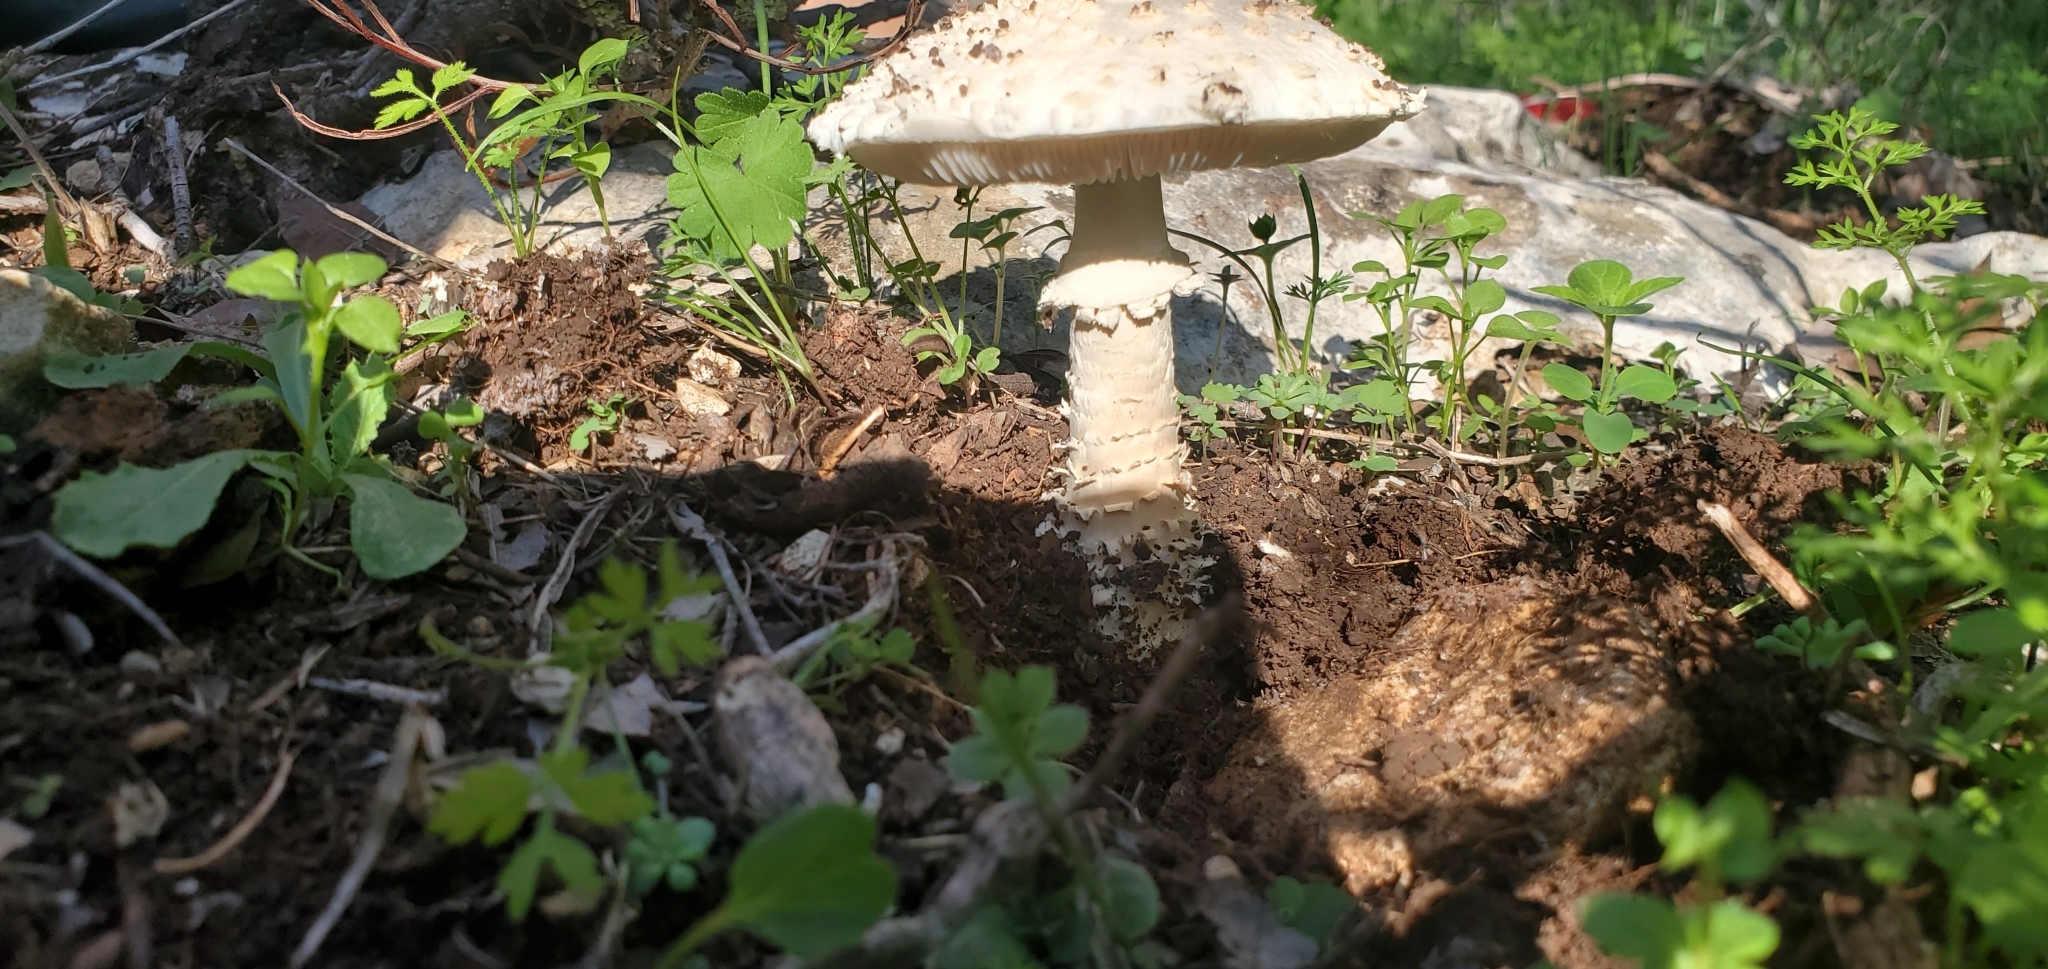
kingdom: Fungi
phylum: Basidiomycota
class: Agaricomycetes
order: Agaricales
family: Amanitaceae
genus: Amanita
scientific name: Amanita vittadinii
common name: Barefoot amanita
